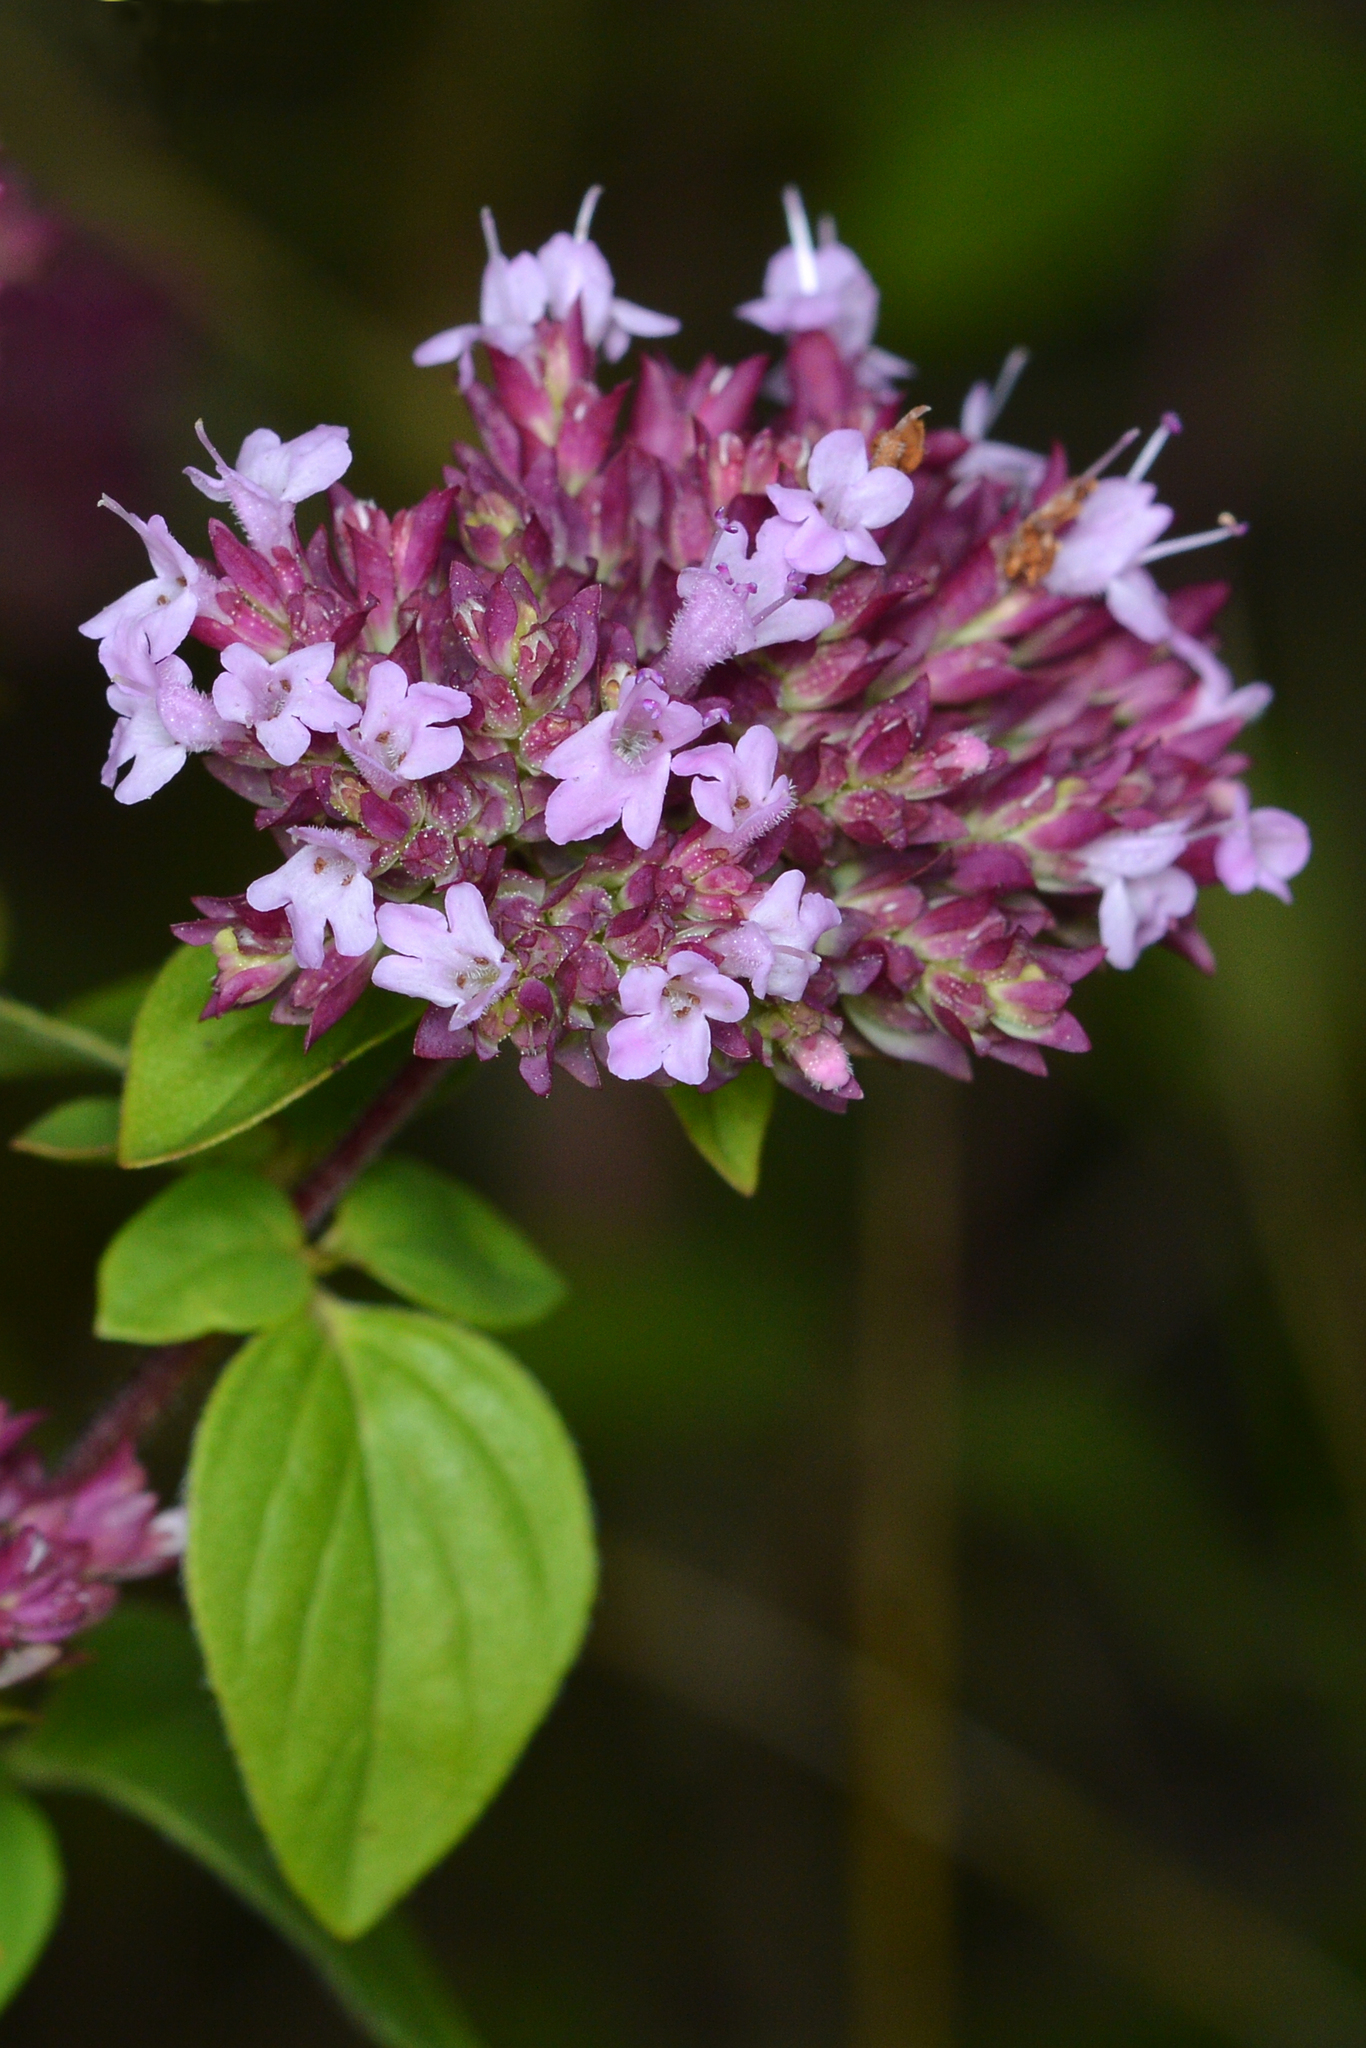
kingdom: Plantae
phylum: Tracheophyta
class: Magnoliopsida
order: Lamiales
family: Lamiaceae
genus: Origanum
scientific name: Origanum vulgare
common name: Wild marjoram
